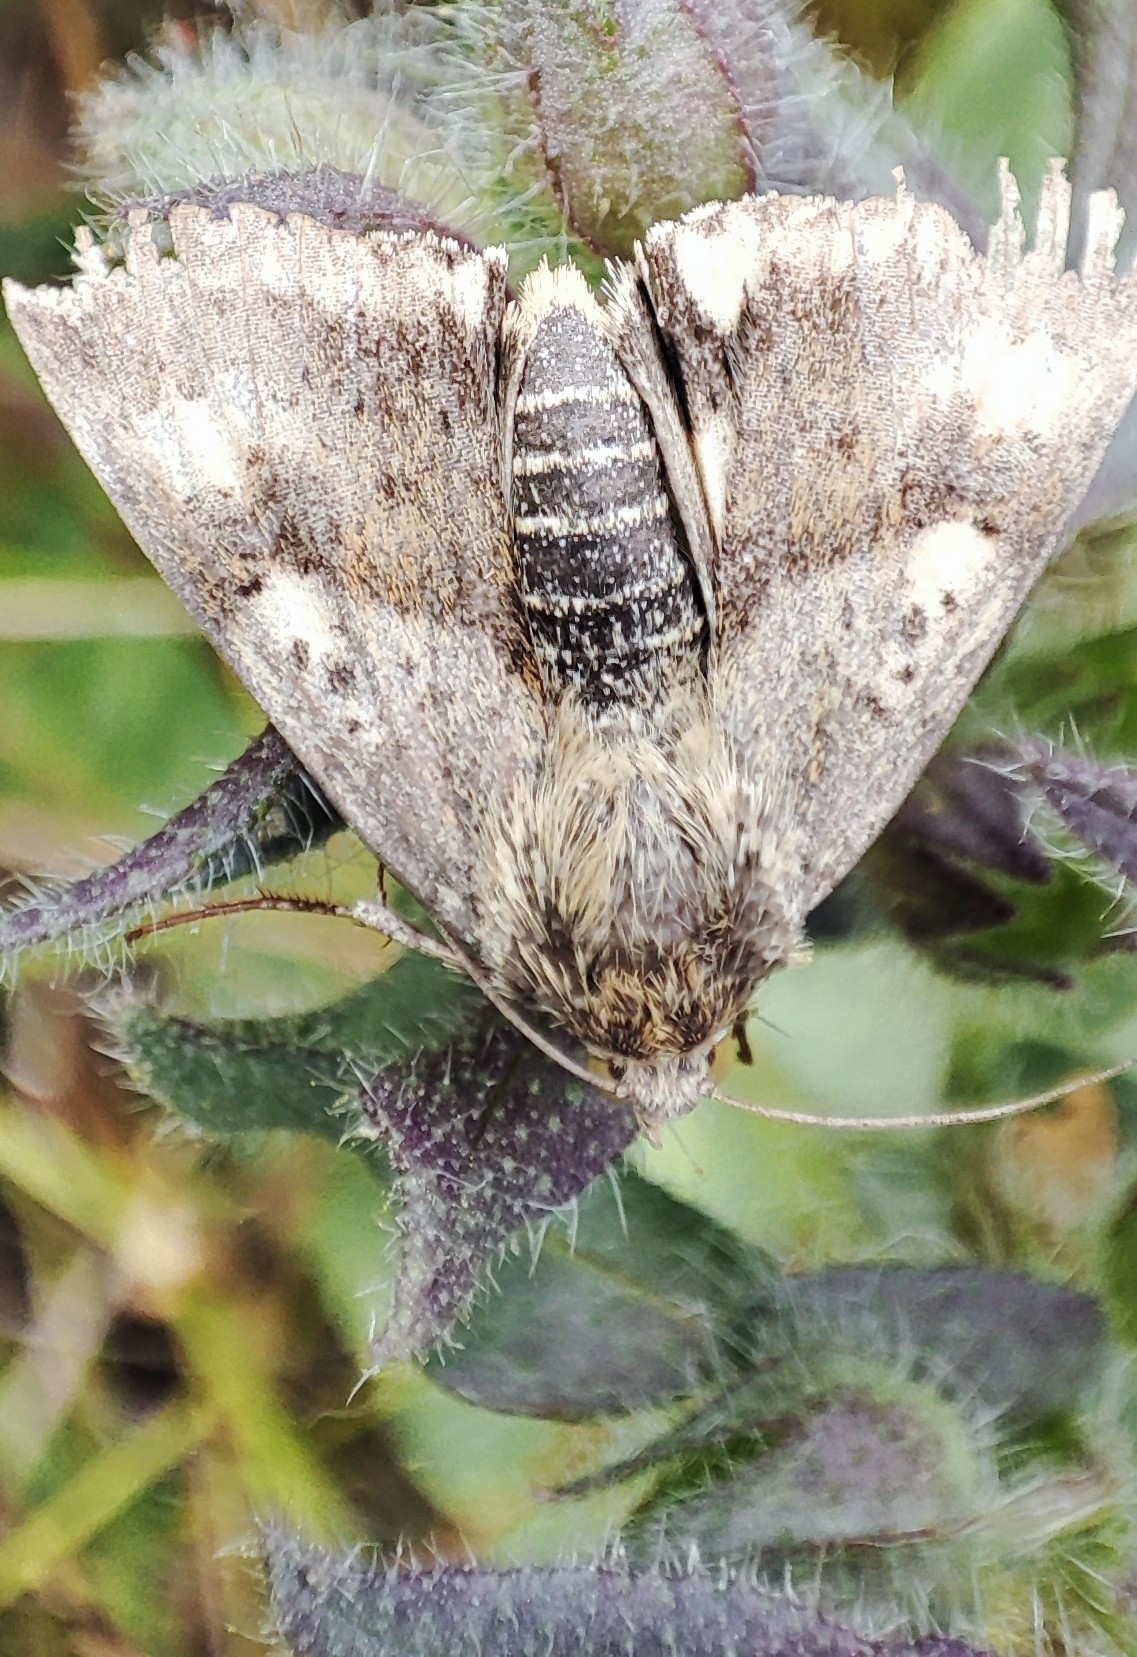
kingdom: Animalia
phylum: Arthropoda
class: Insecta
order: Lepidoptera
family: Noctuidae
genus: Heliothis
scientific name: Heliothis viriplaca
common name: Marbled clover
